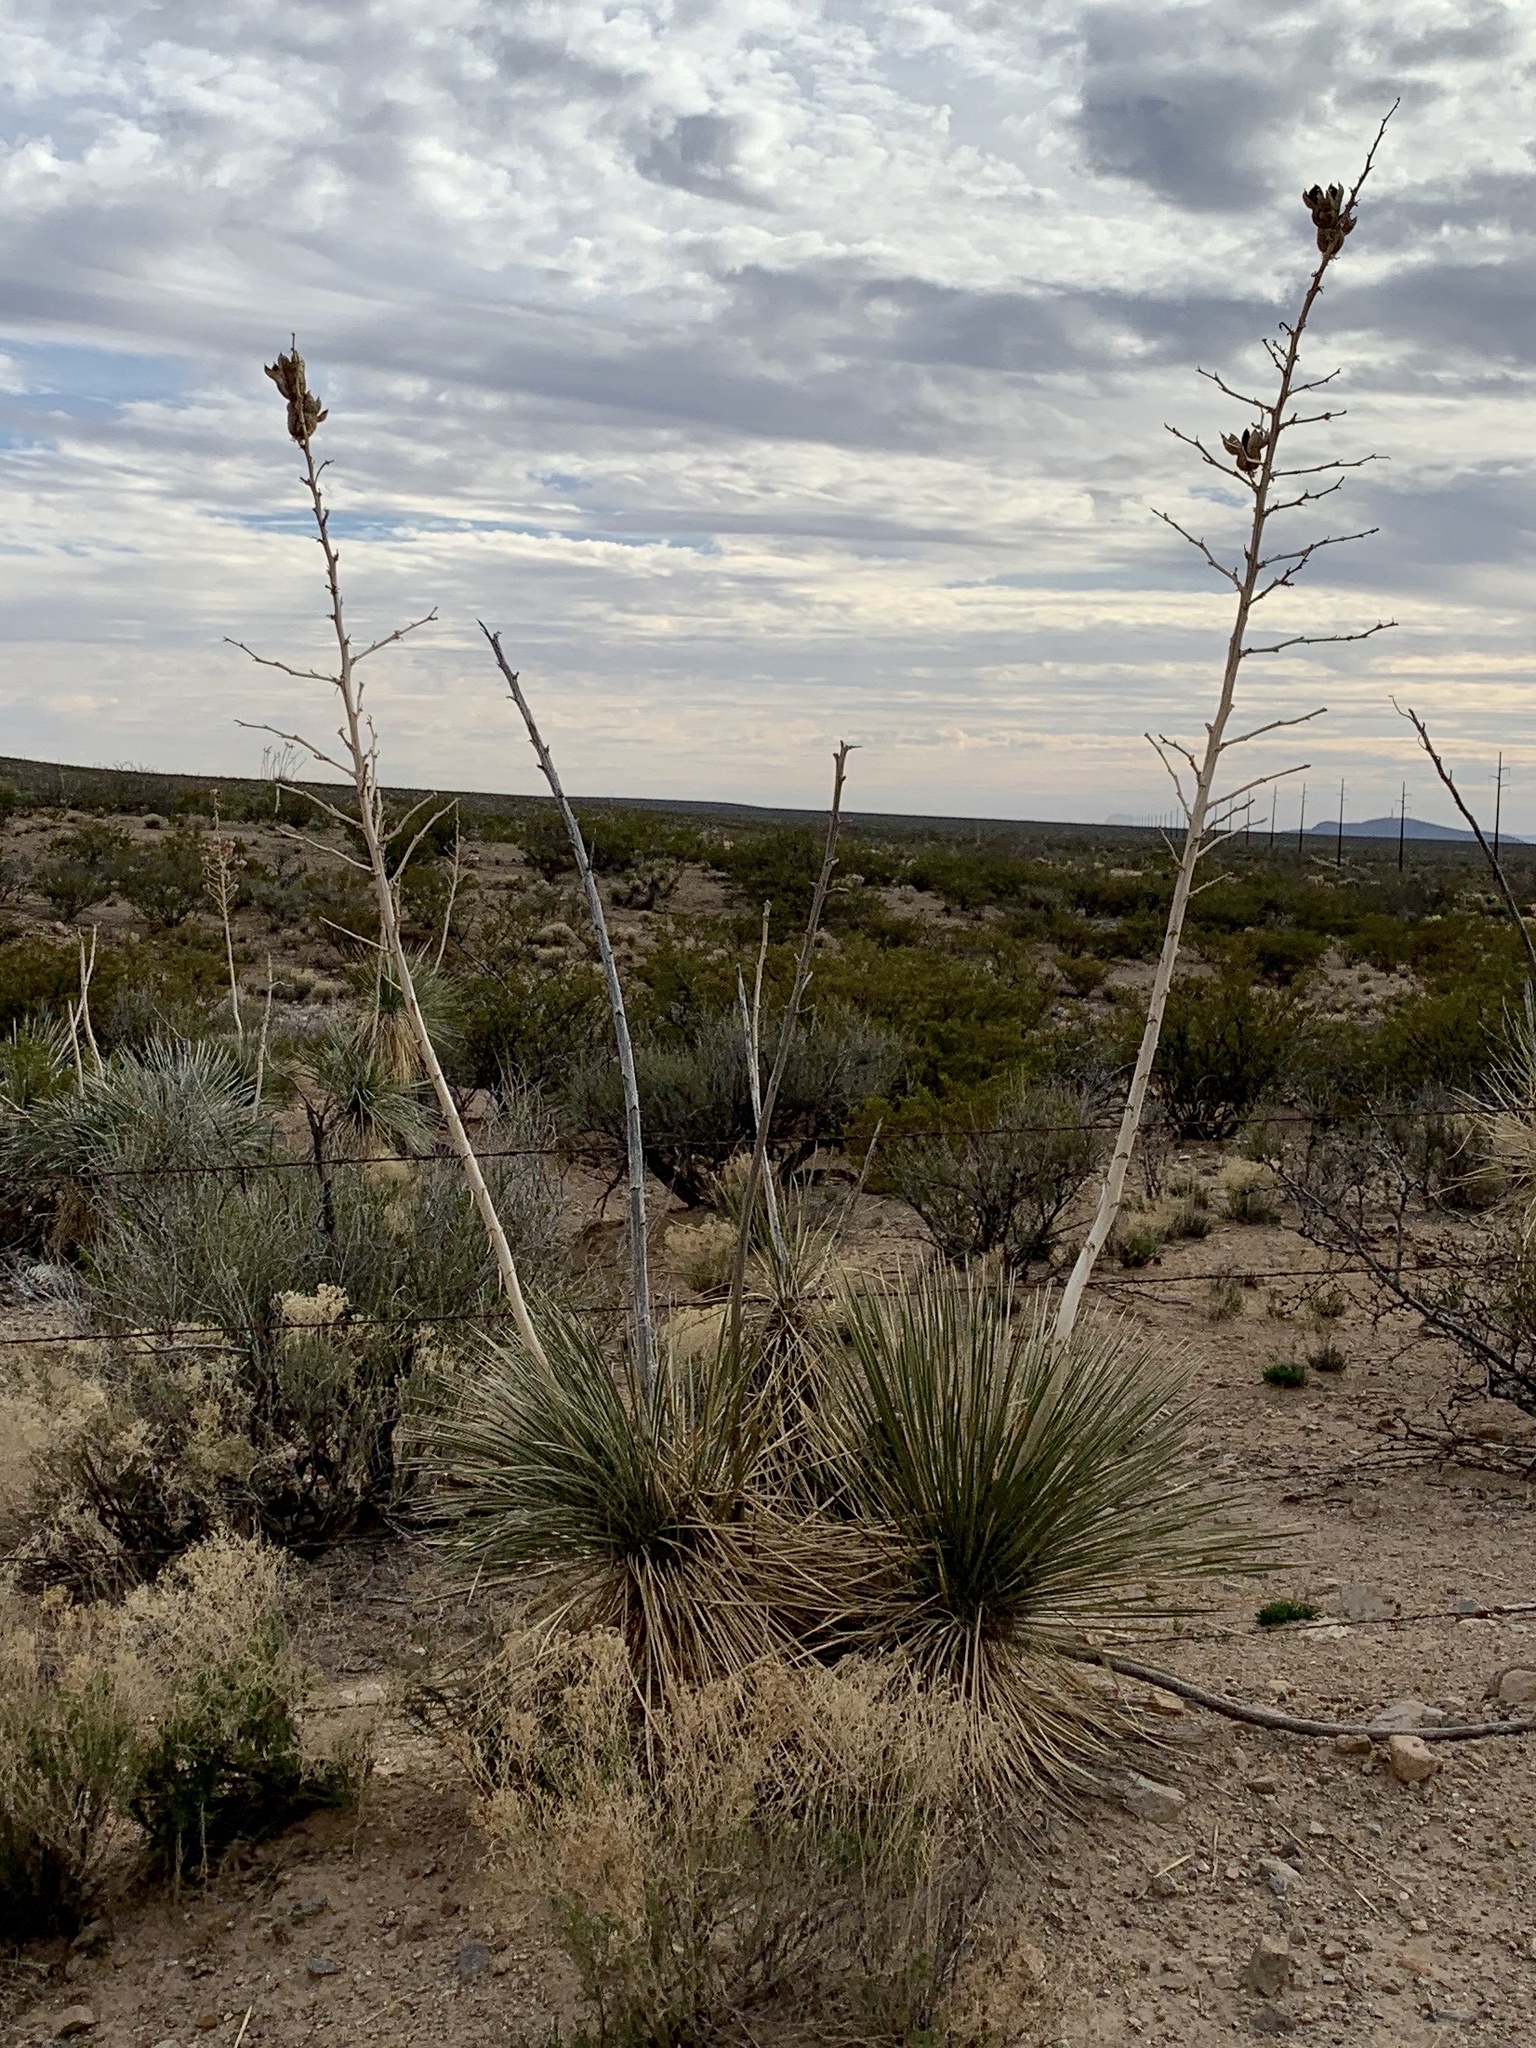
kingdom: Plantae
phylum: Tracheophyta
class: Liliopsida
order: Asparagales
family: Asparagaceae
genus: Yucca
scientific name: Yucca elata
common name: Palmella
